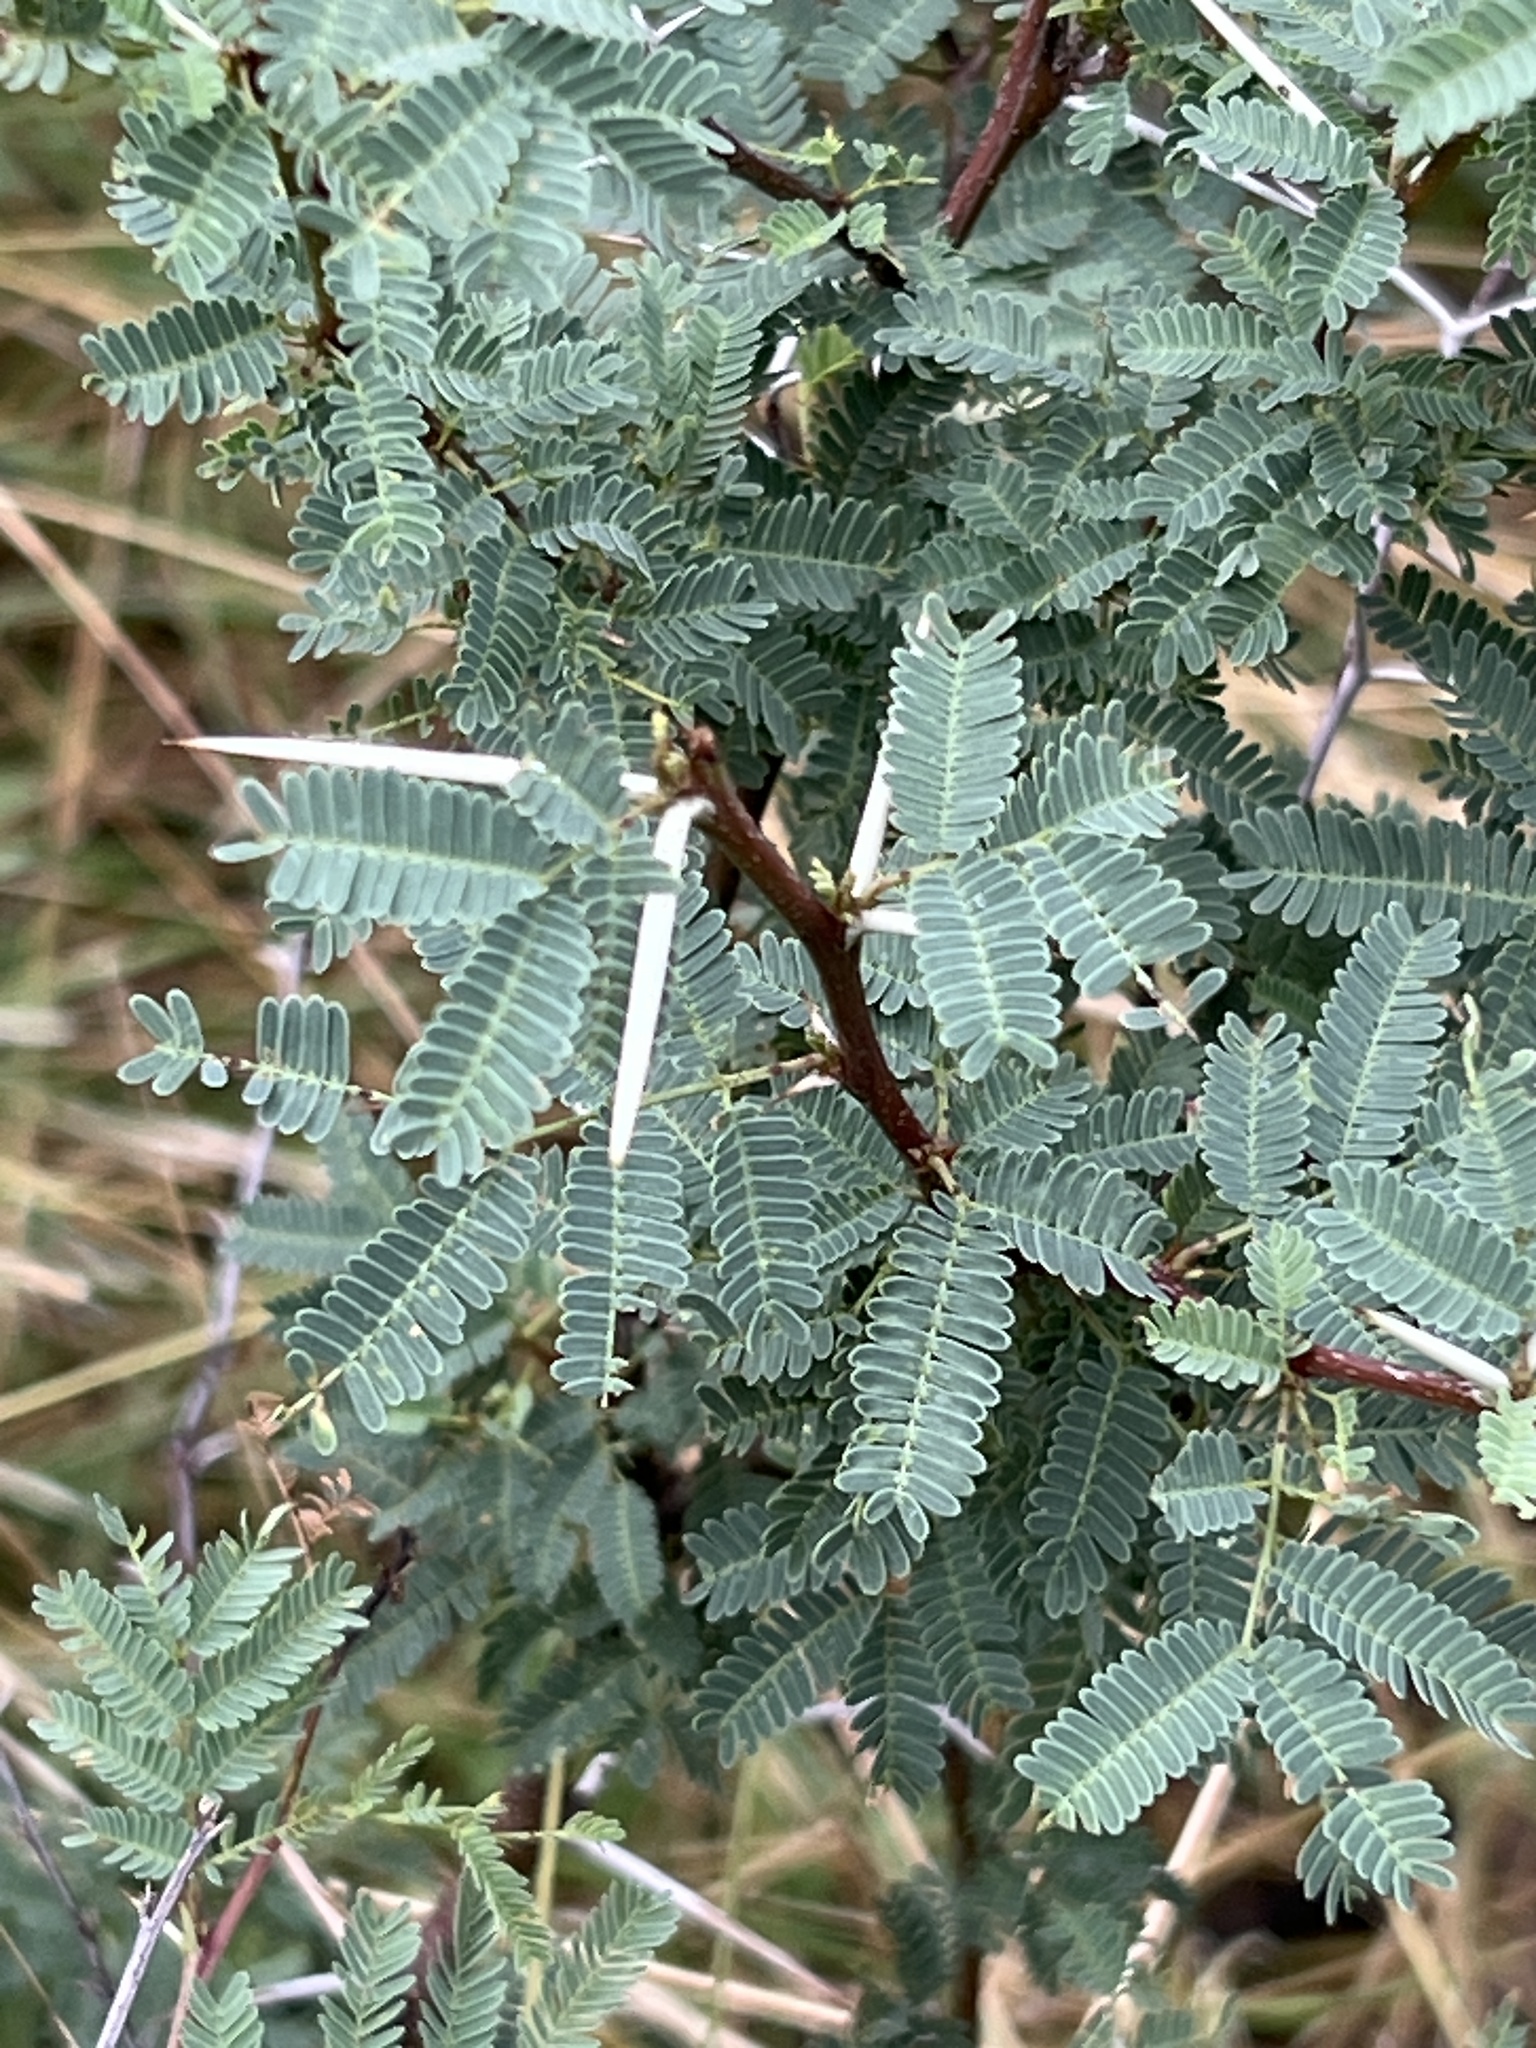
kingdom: Plantae
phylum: Tracheophyta
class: Magnoliopsida
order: Fabales
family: Fabaceae
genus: Vachellia
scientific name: Vachellia farnesiana
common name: Sweet acacia
